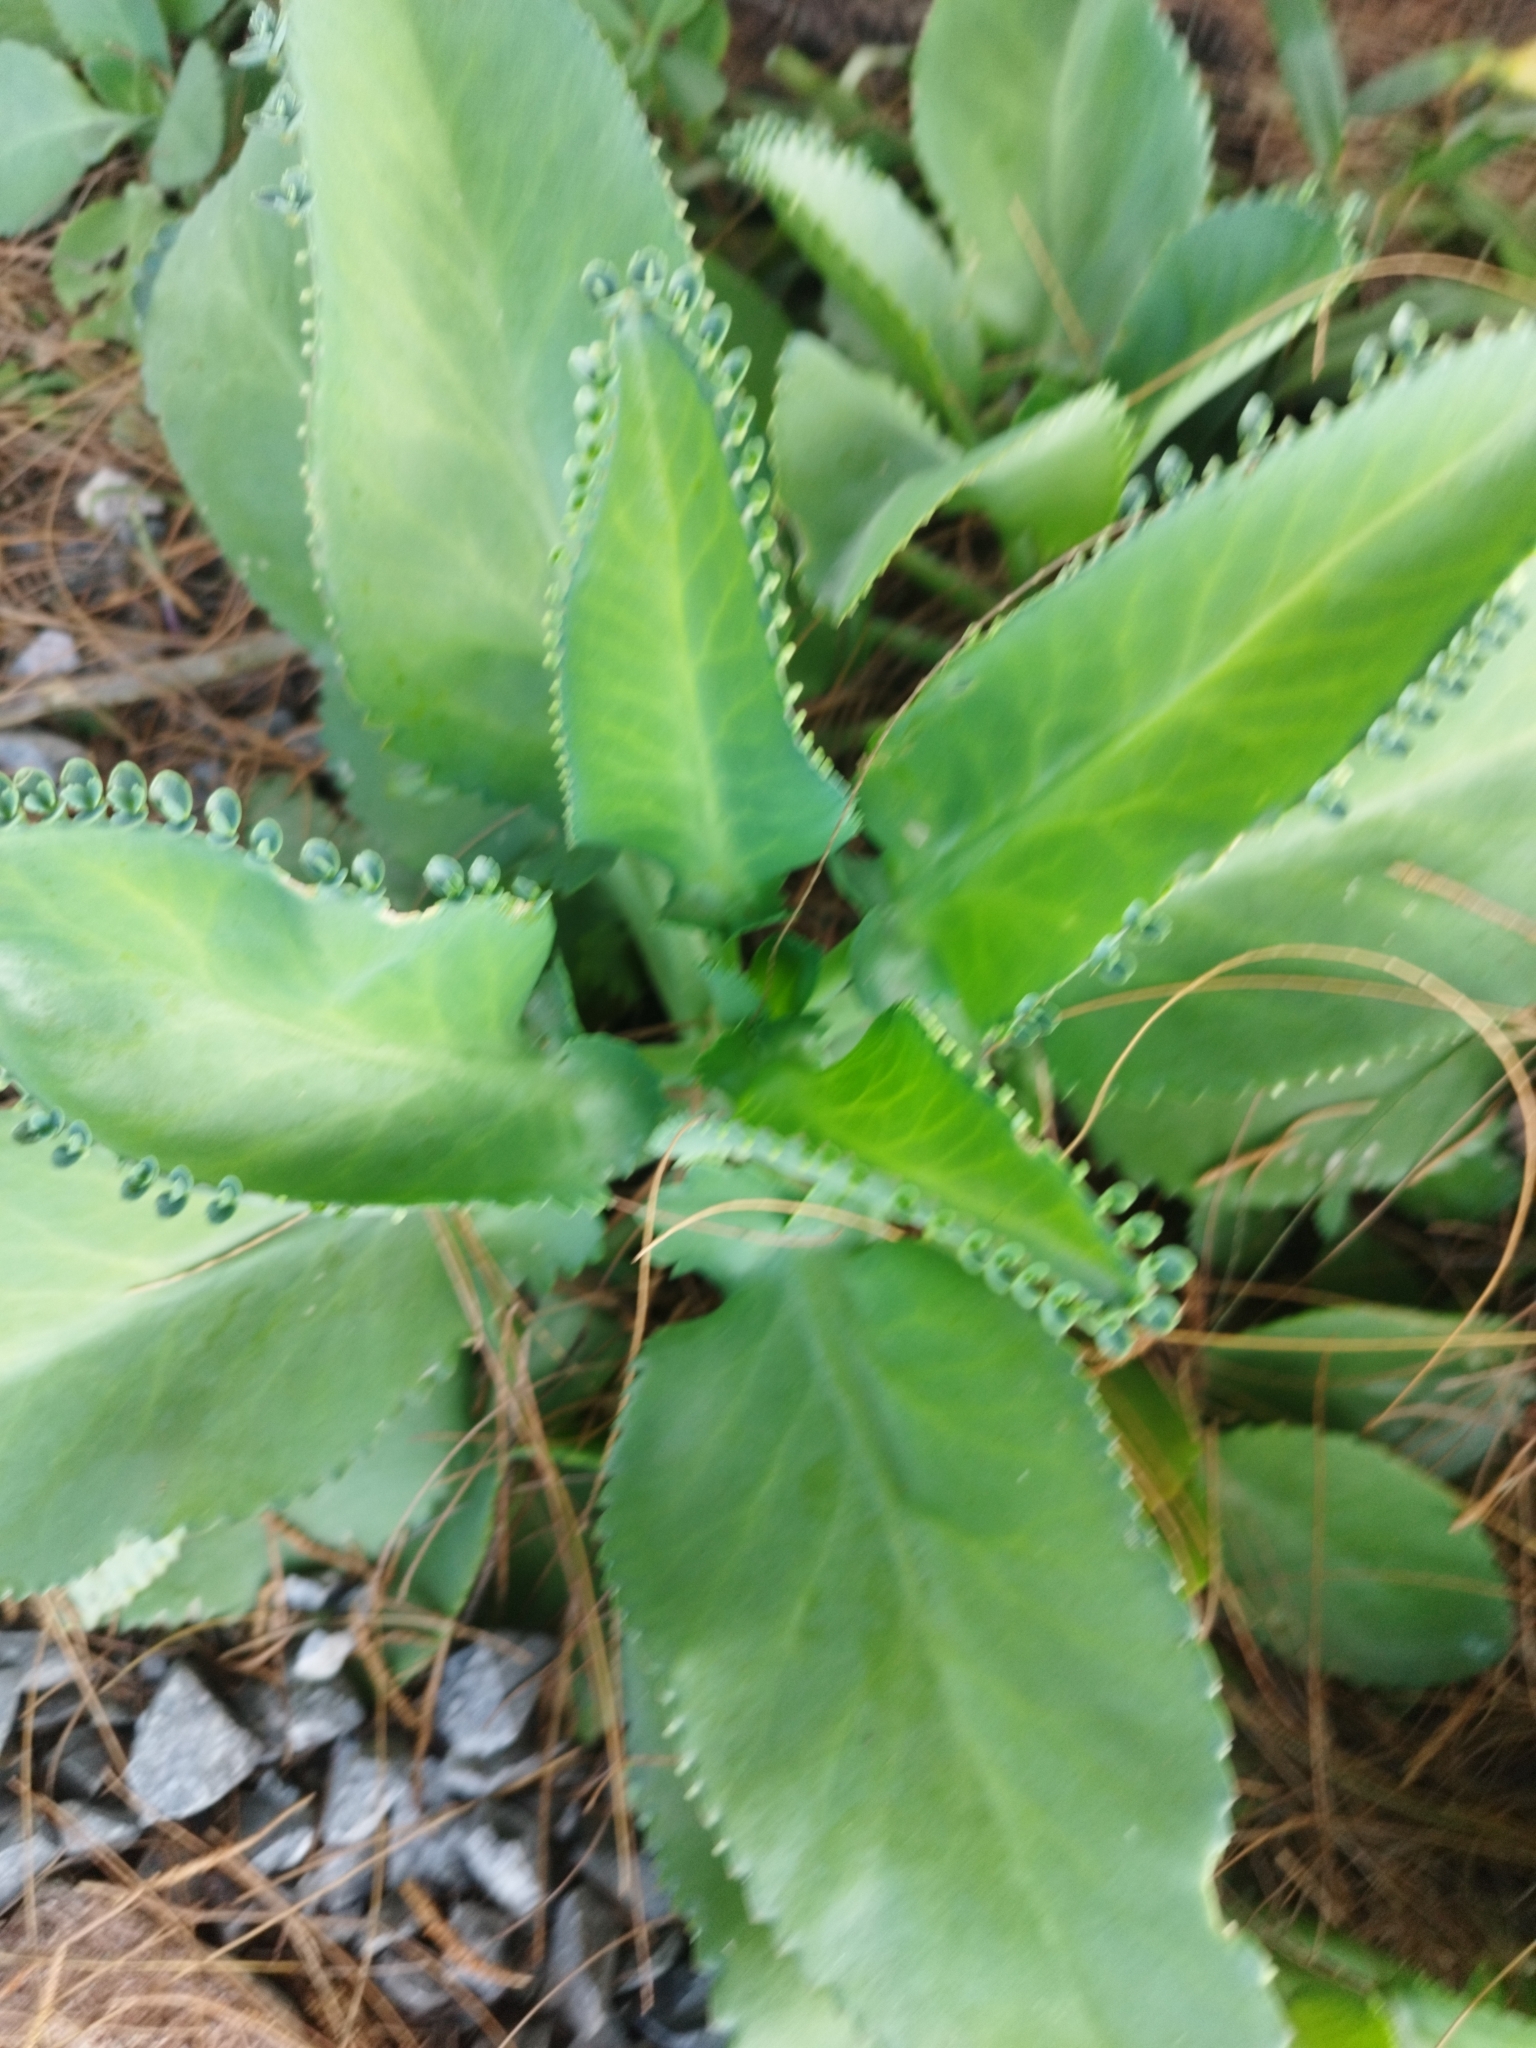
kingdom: Plantae
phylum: Tracheophyta
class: Magnoliopsida
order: Saxifragales
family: Crassulaceae
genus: Kalanchoe
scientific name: Kalanchoe laetivirens
